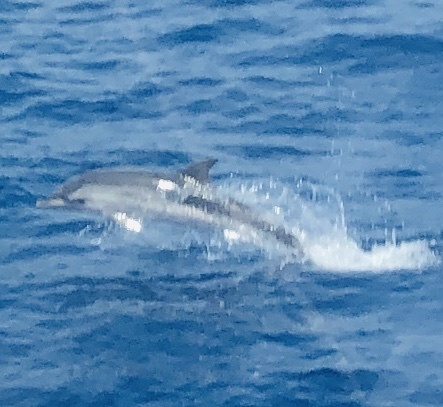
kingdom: Animalia
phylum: Chordata
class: Mammalia
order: Cetacea
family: Delphinidae
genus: Stenella
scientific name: Stenella coeruleoalba
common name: Striped dolphin
